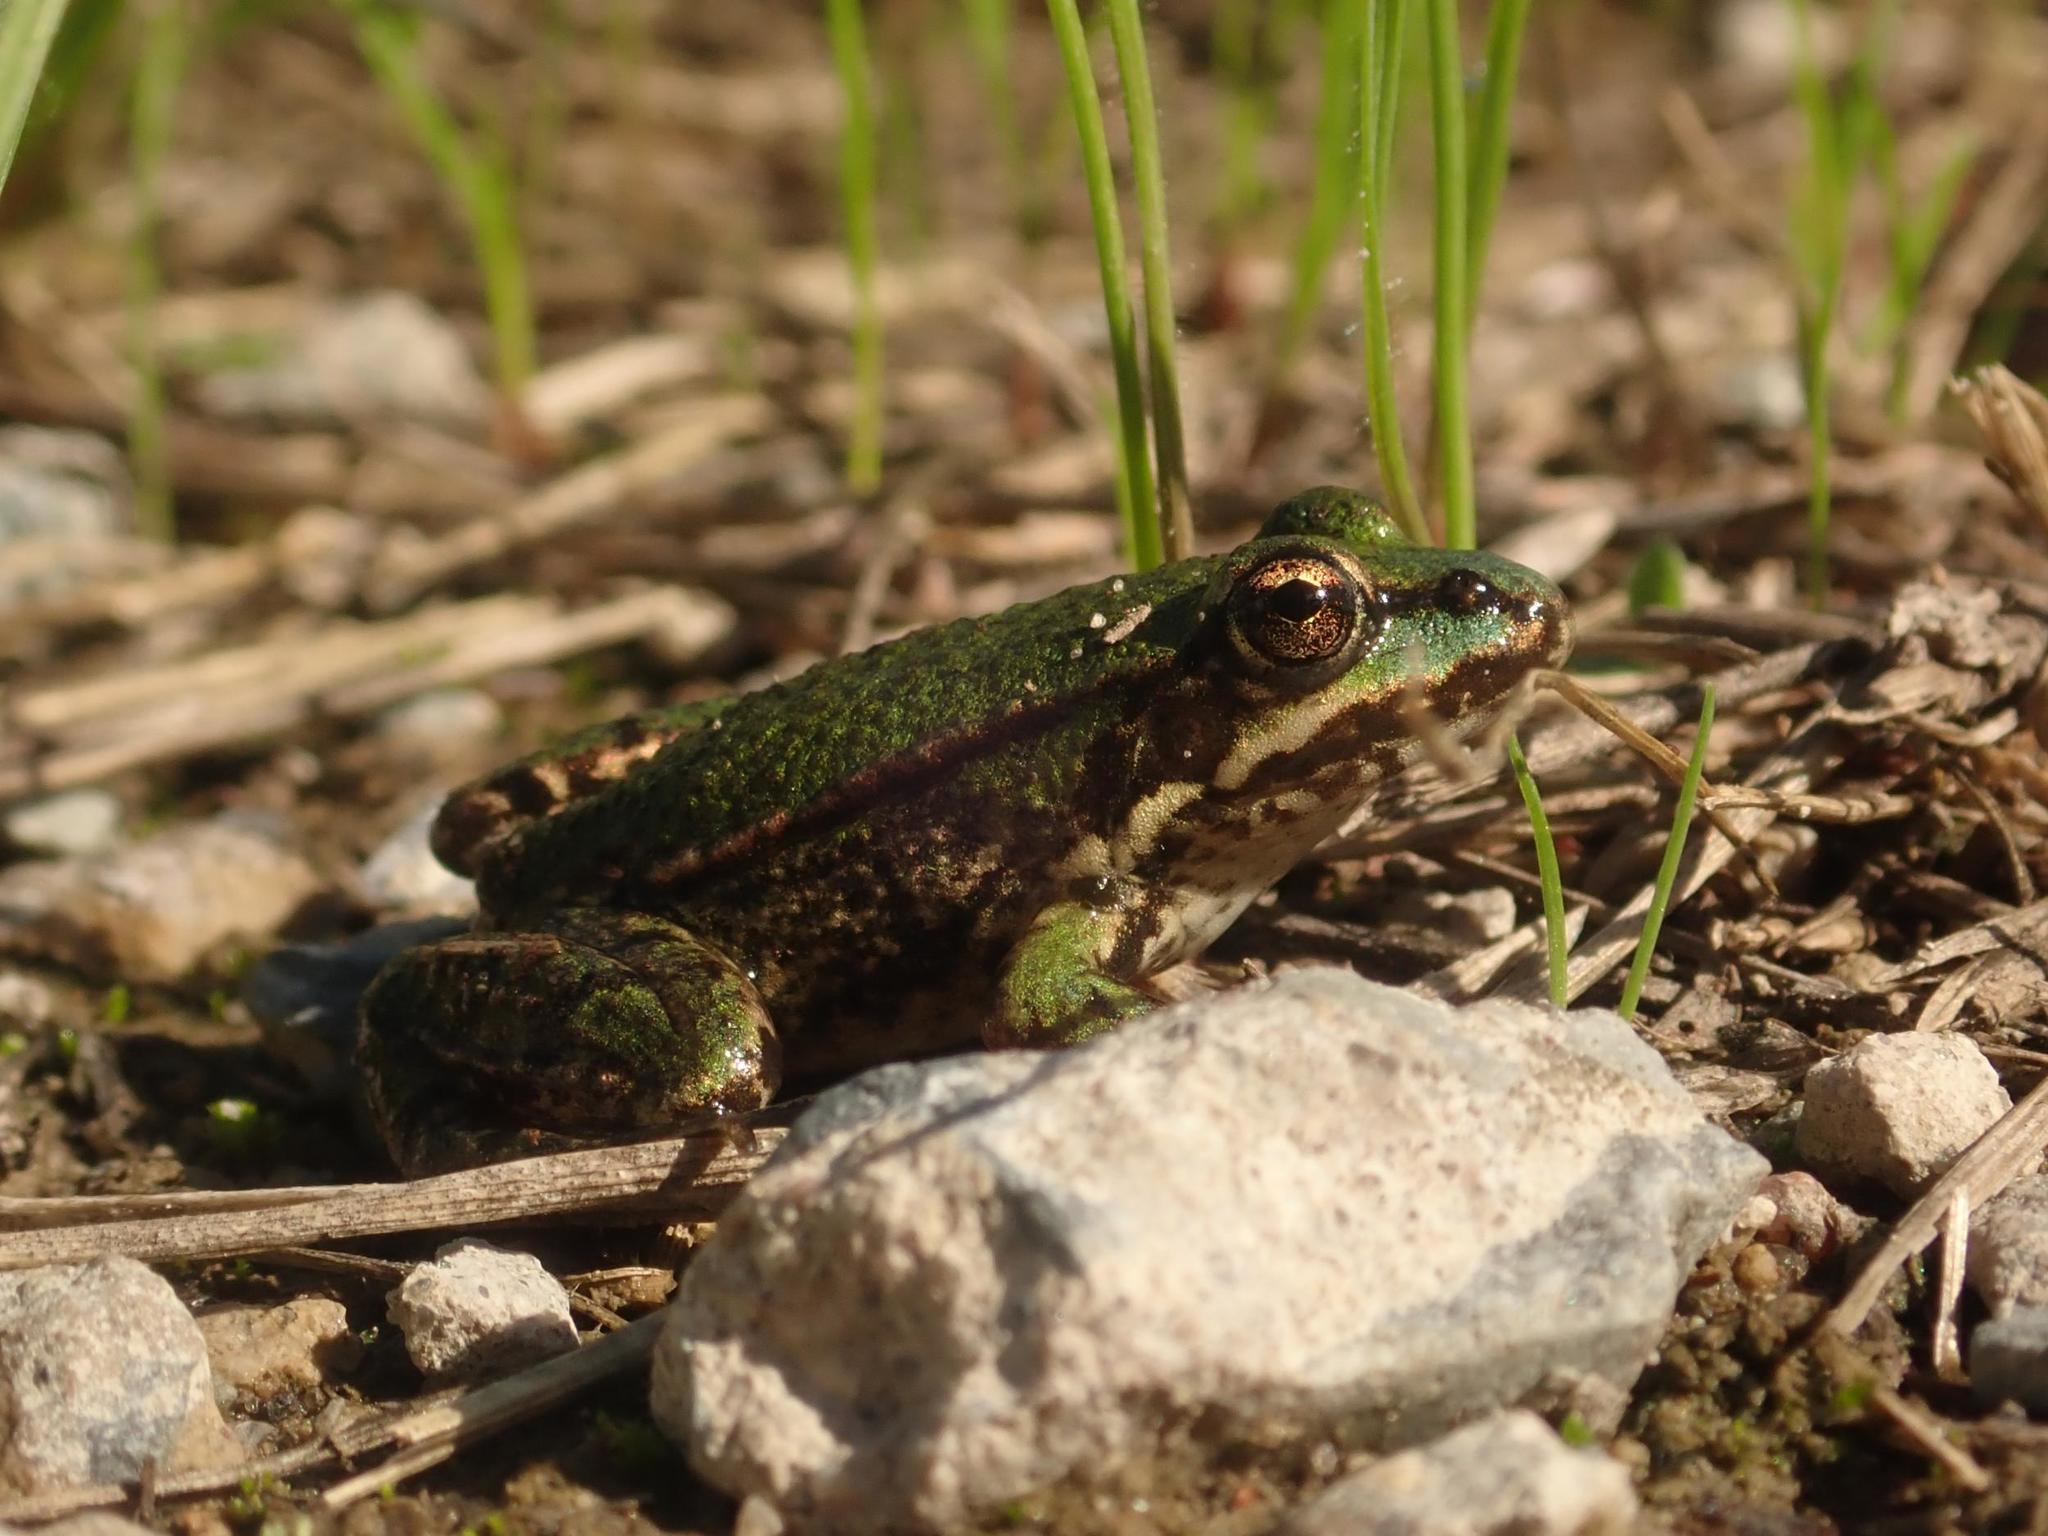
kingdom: Animalia
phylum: Chordata
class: Amphibia
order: Anura
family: Ranidae
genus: Pelophylax
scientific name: Pelophylax
